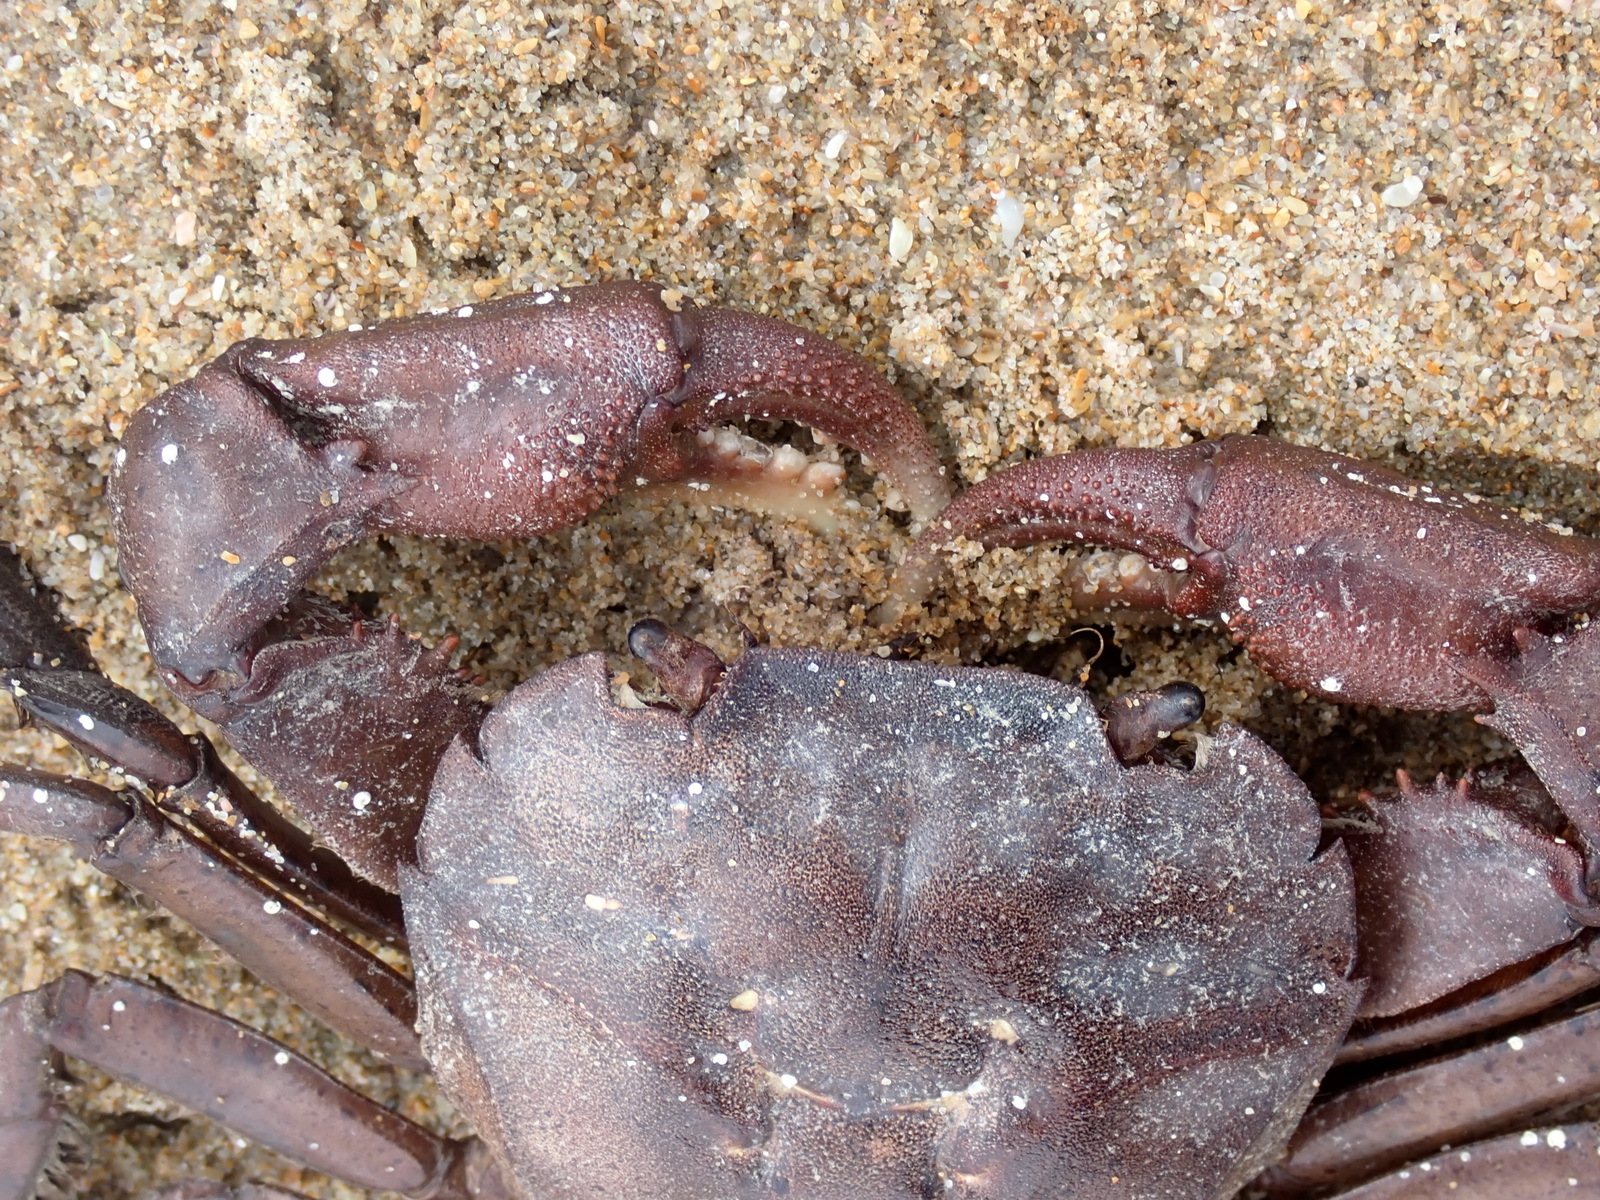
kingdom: Animalia
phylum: Arthropoda
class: Malacostraca
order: Decapoda
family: Varunidae
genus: Varuna
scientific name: Varuna litterata
